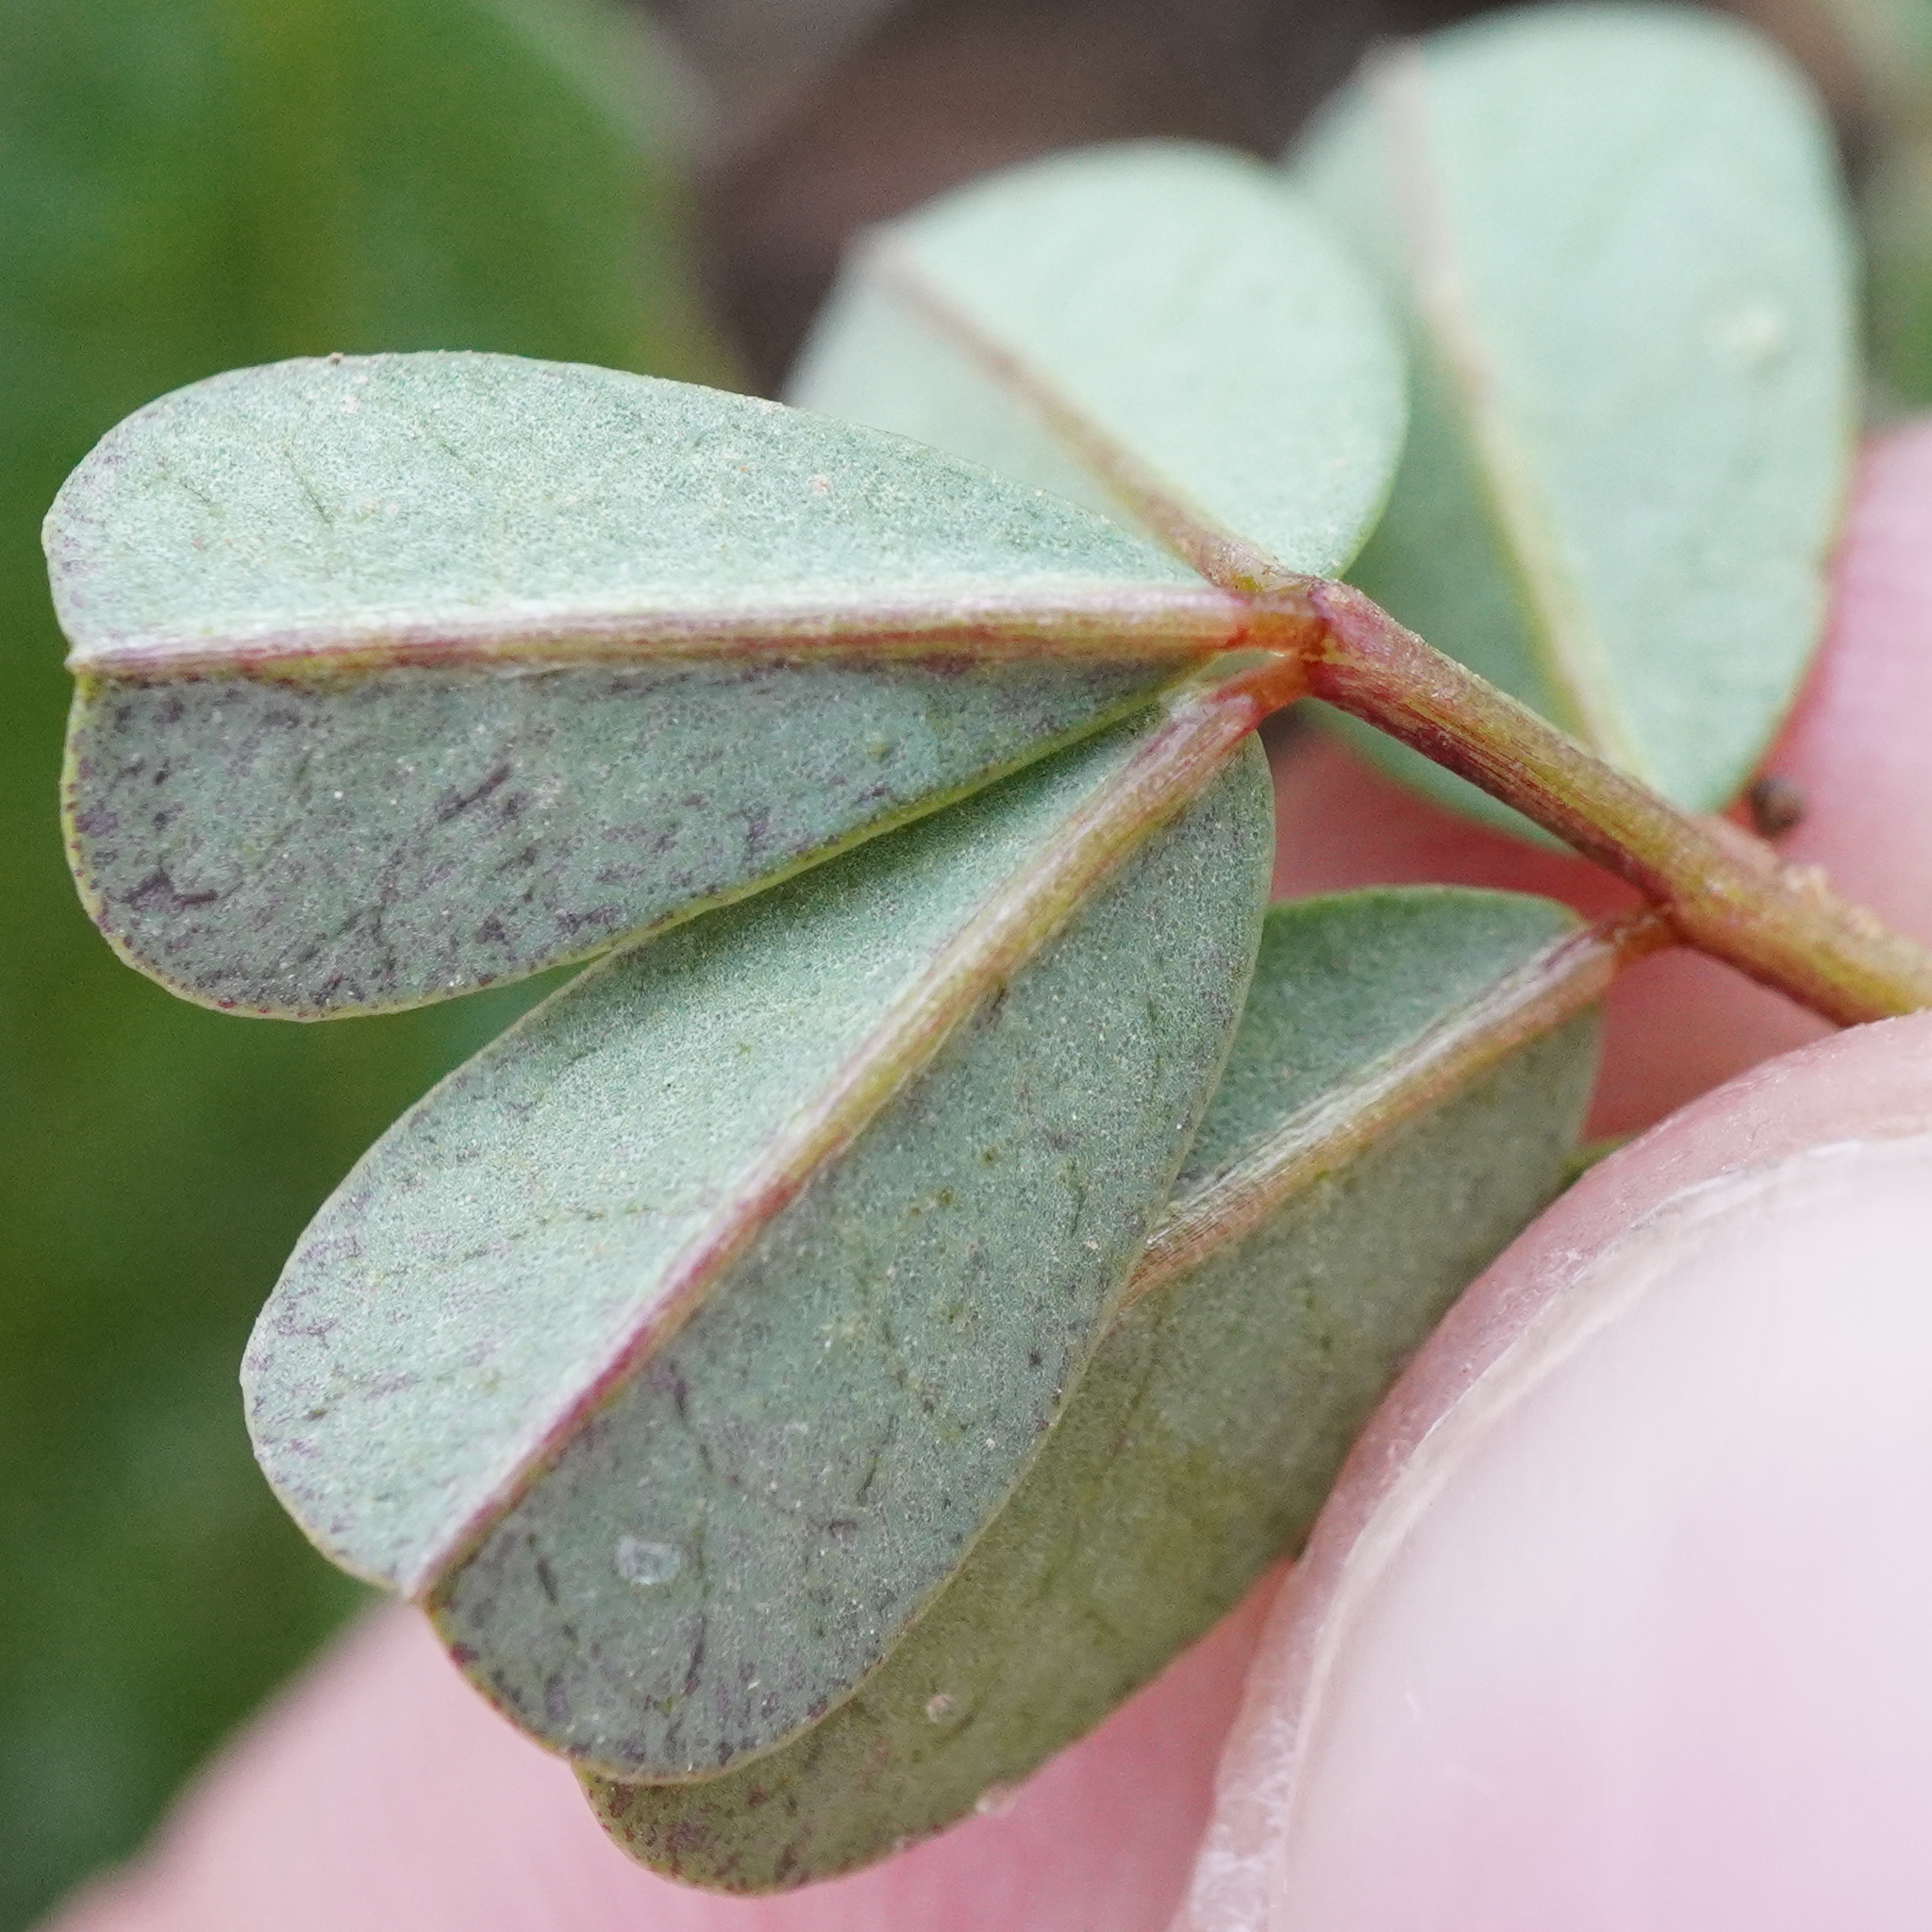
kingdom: Plantae
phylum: Tracheophyta
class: Magnoliopsida
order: Fabales
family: Fabaceae
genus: Coronilla
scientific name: Coronilla varia
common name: Crownvetch
